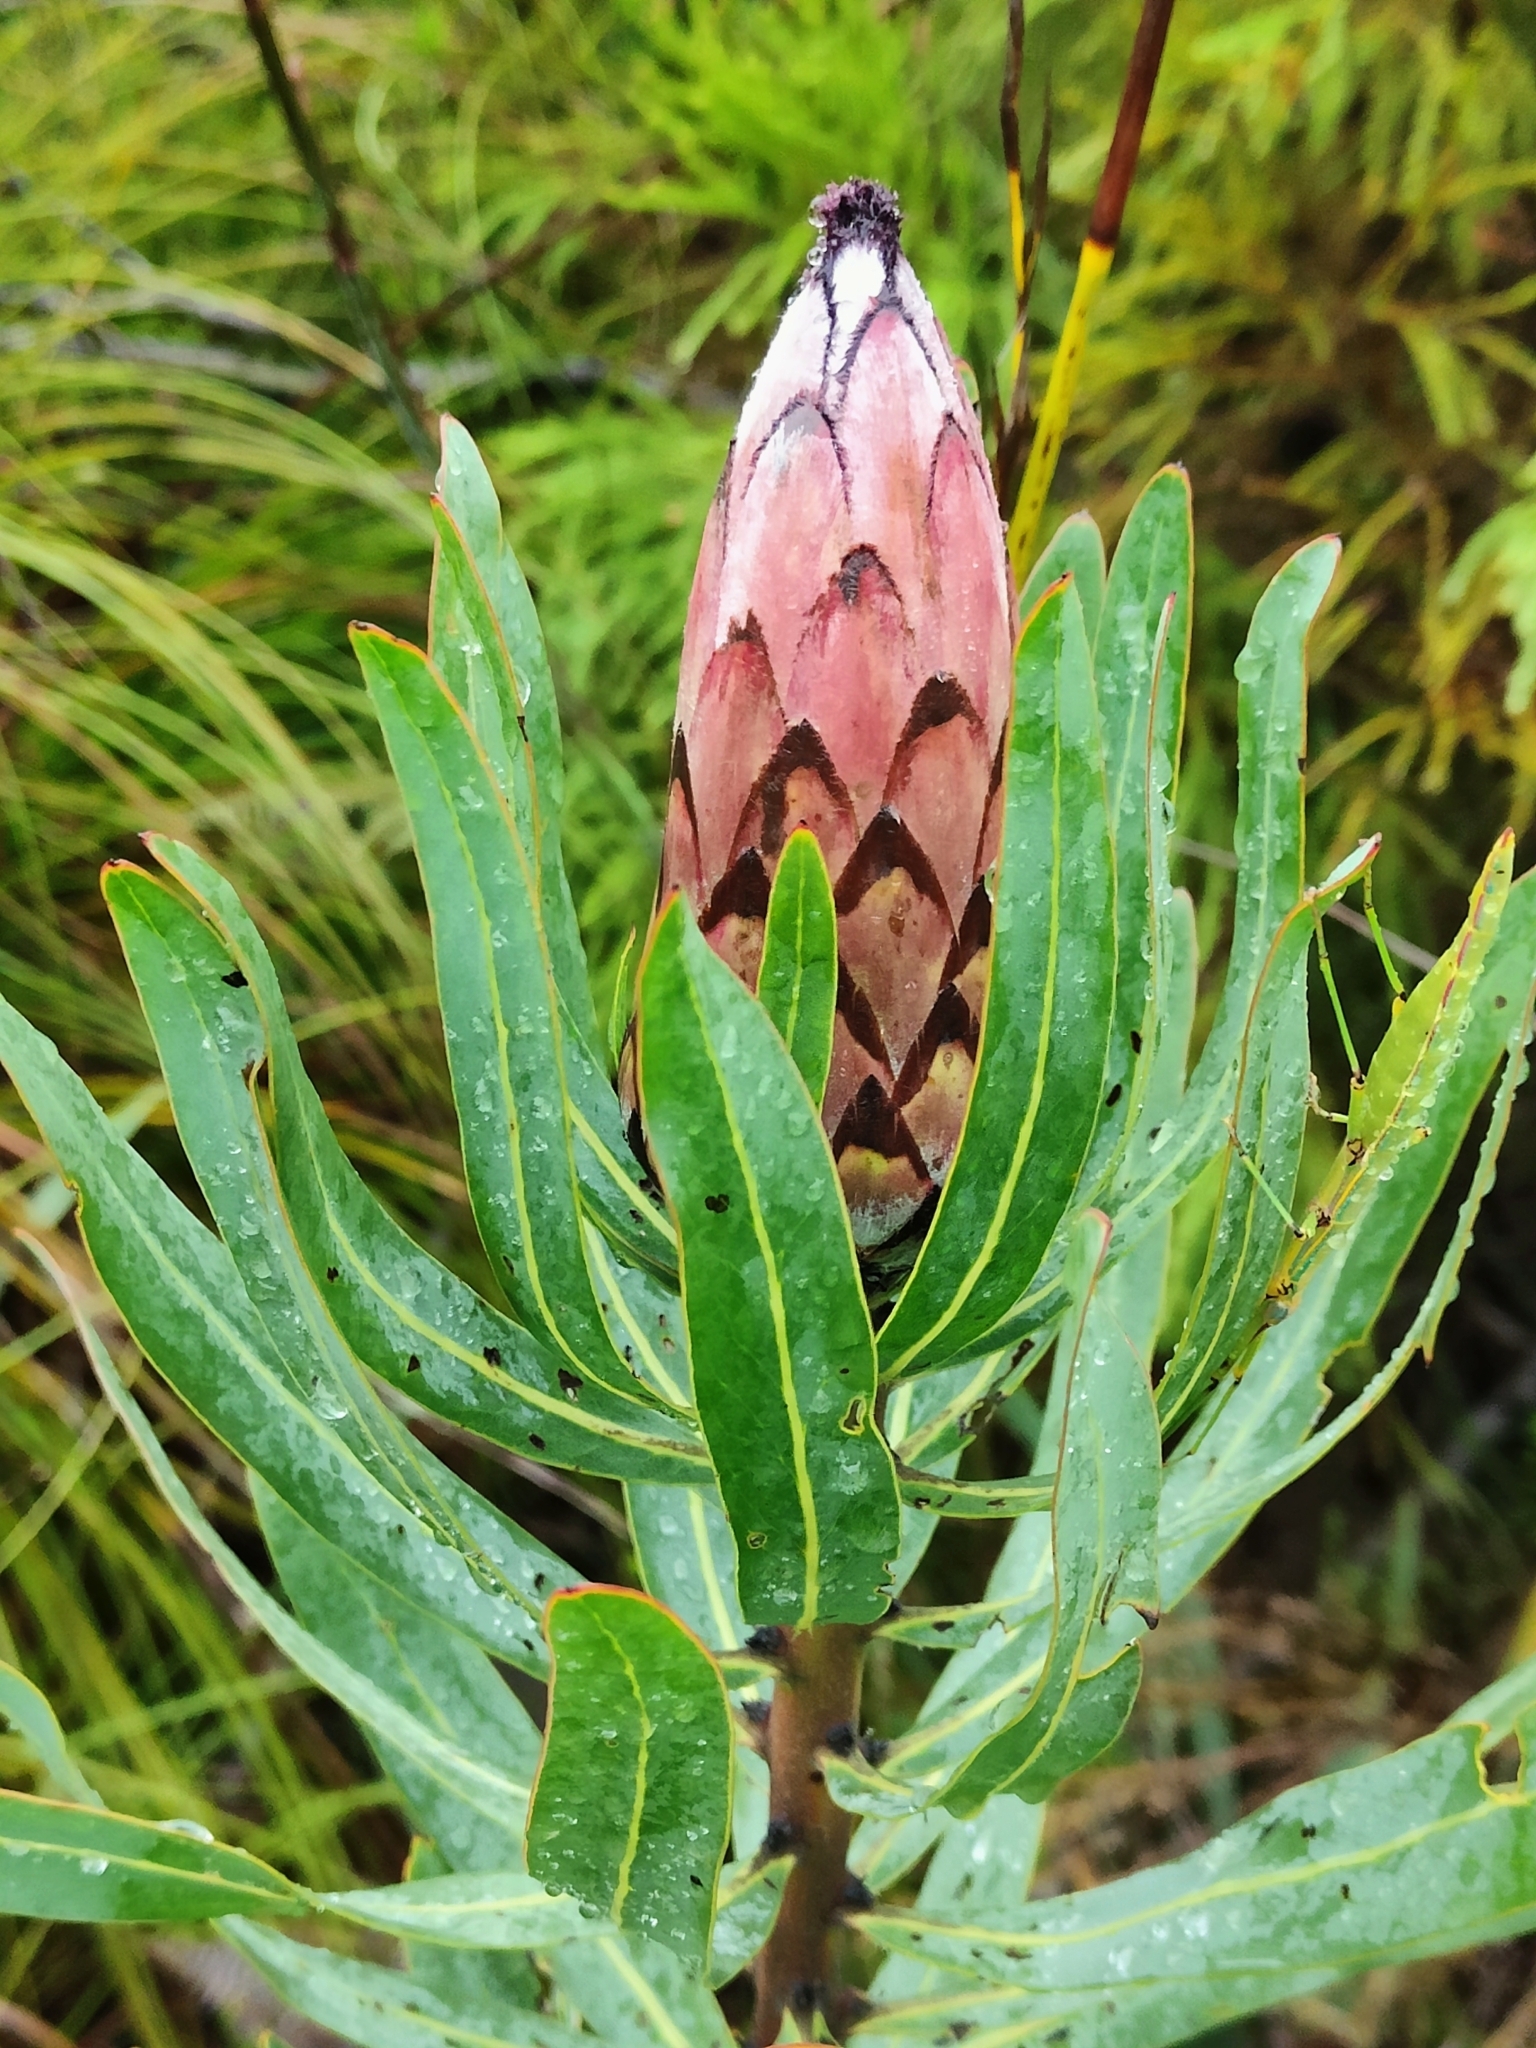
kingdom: Plantae
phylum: Tracheophyta
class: Magnoliopsida
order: Proteales
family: Proteaceae
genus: Protea
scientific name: Protea neriifolia
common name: Blue sugarbush
